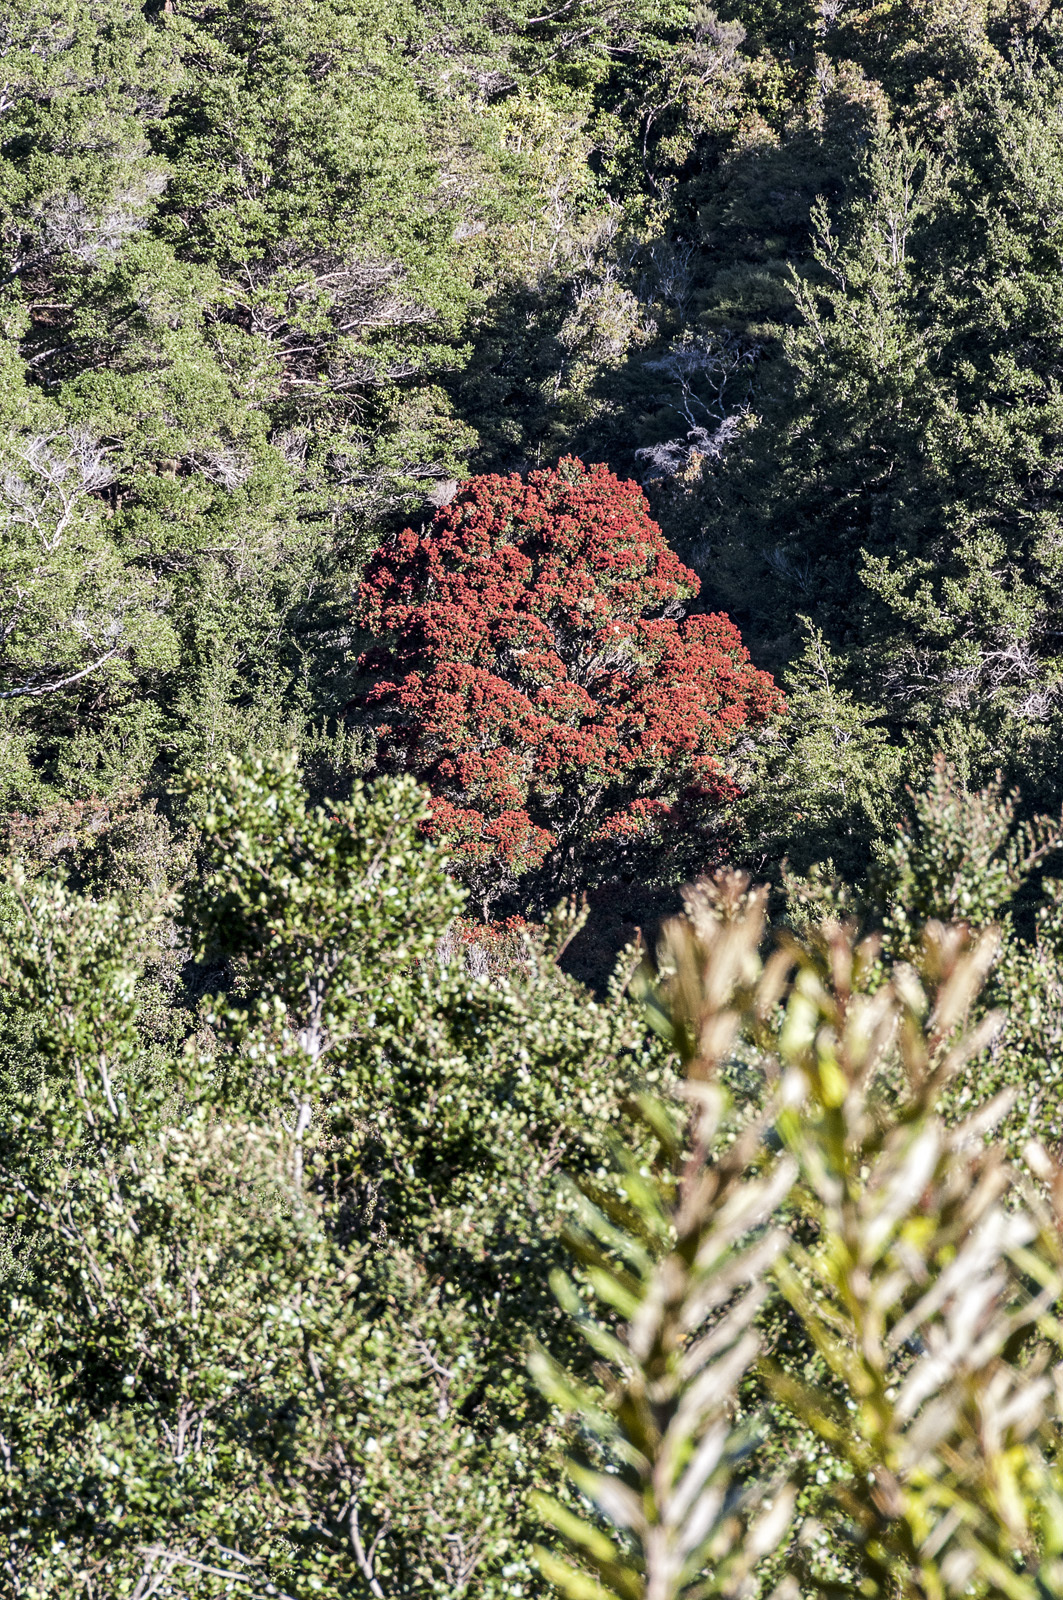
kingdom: Plantae
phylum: Tracheophyta
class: Magnoliopsida
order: Myrtales
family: Myrtaceae
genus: Metrosideros
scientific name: Metrosideros robusta
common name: Northern rata
